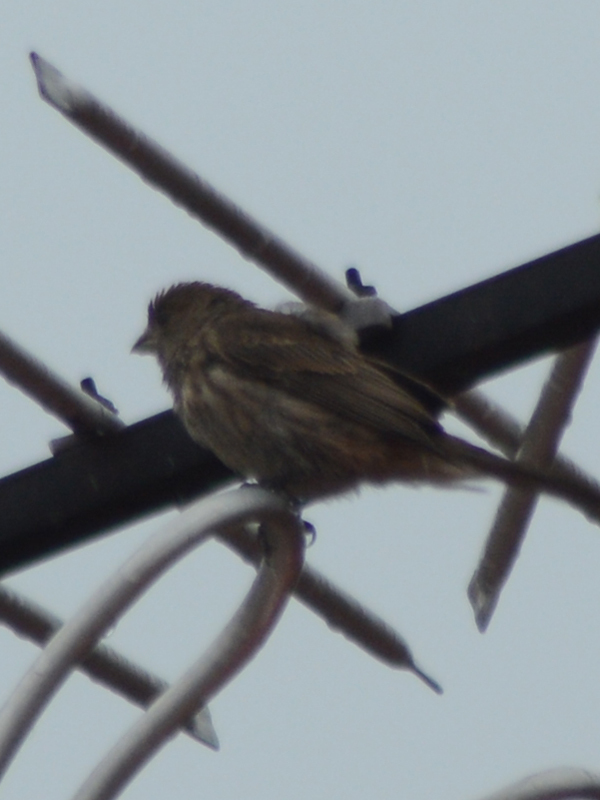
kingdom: Animalia
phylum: Chordata
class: Aves
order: Passeriformes
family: Fringillidae
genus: Haemorhous
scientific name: Haemorhous mexicanus
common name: House finch
